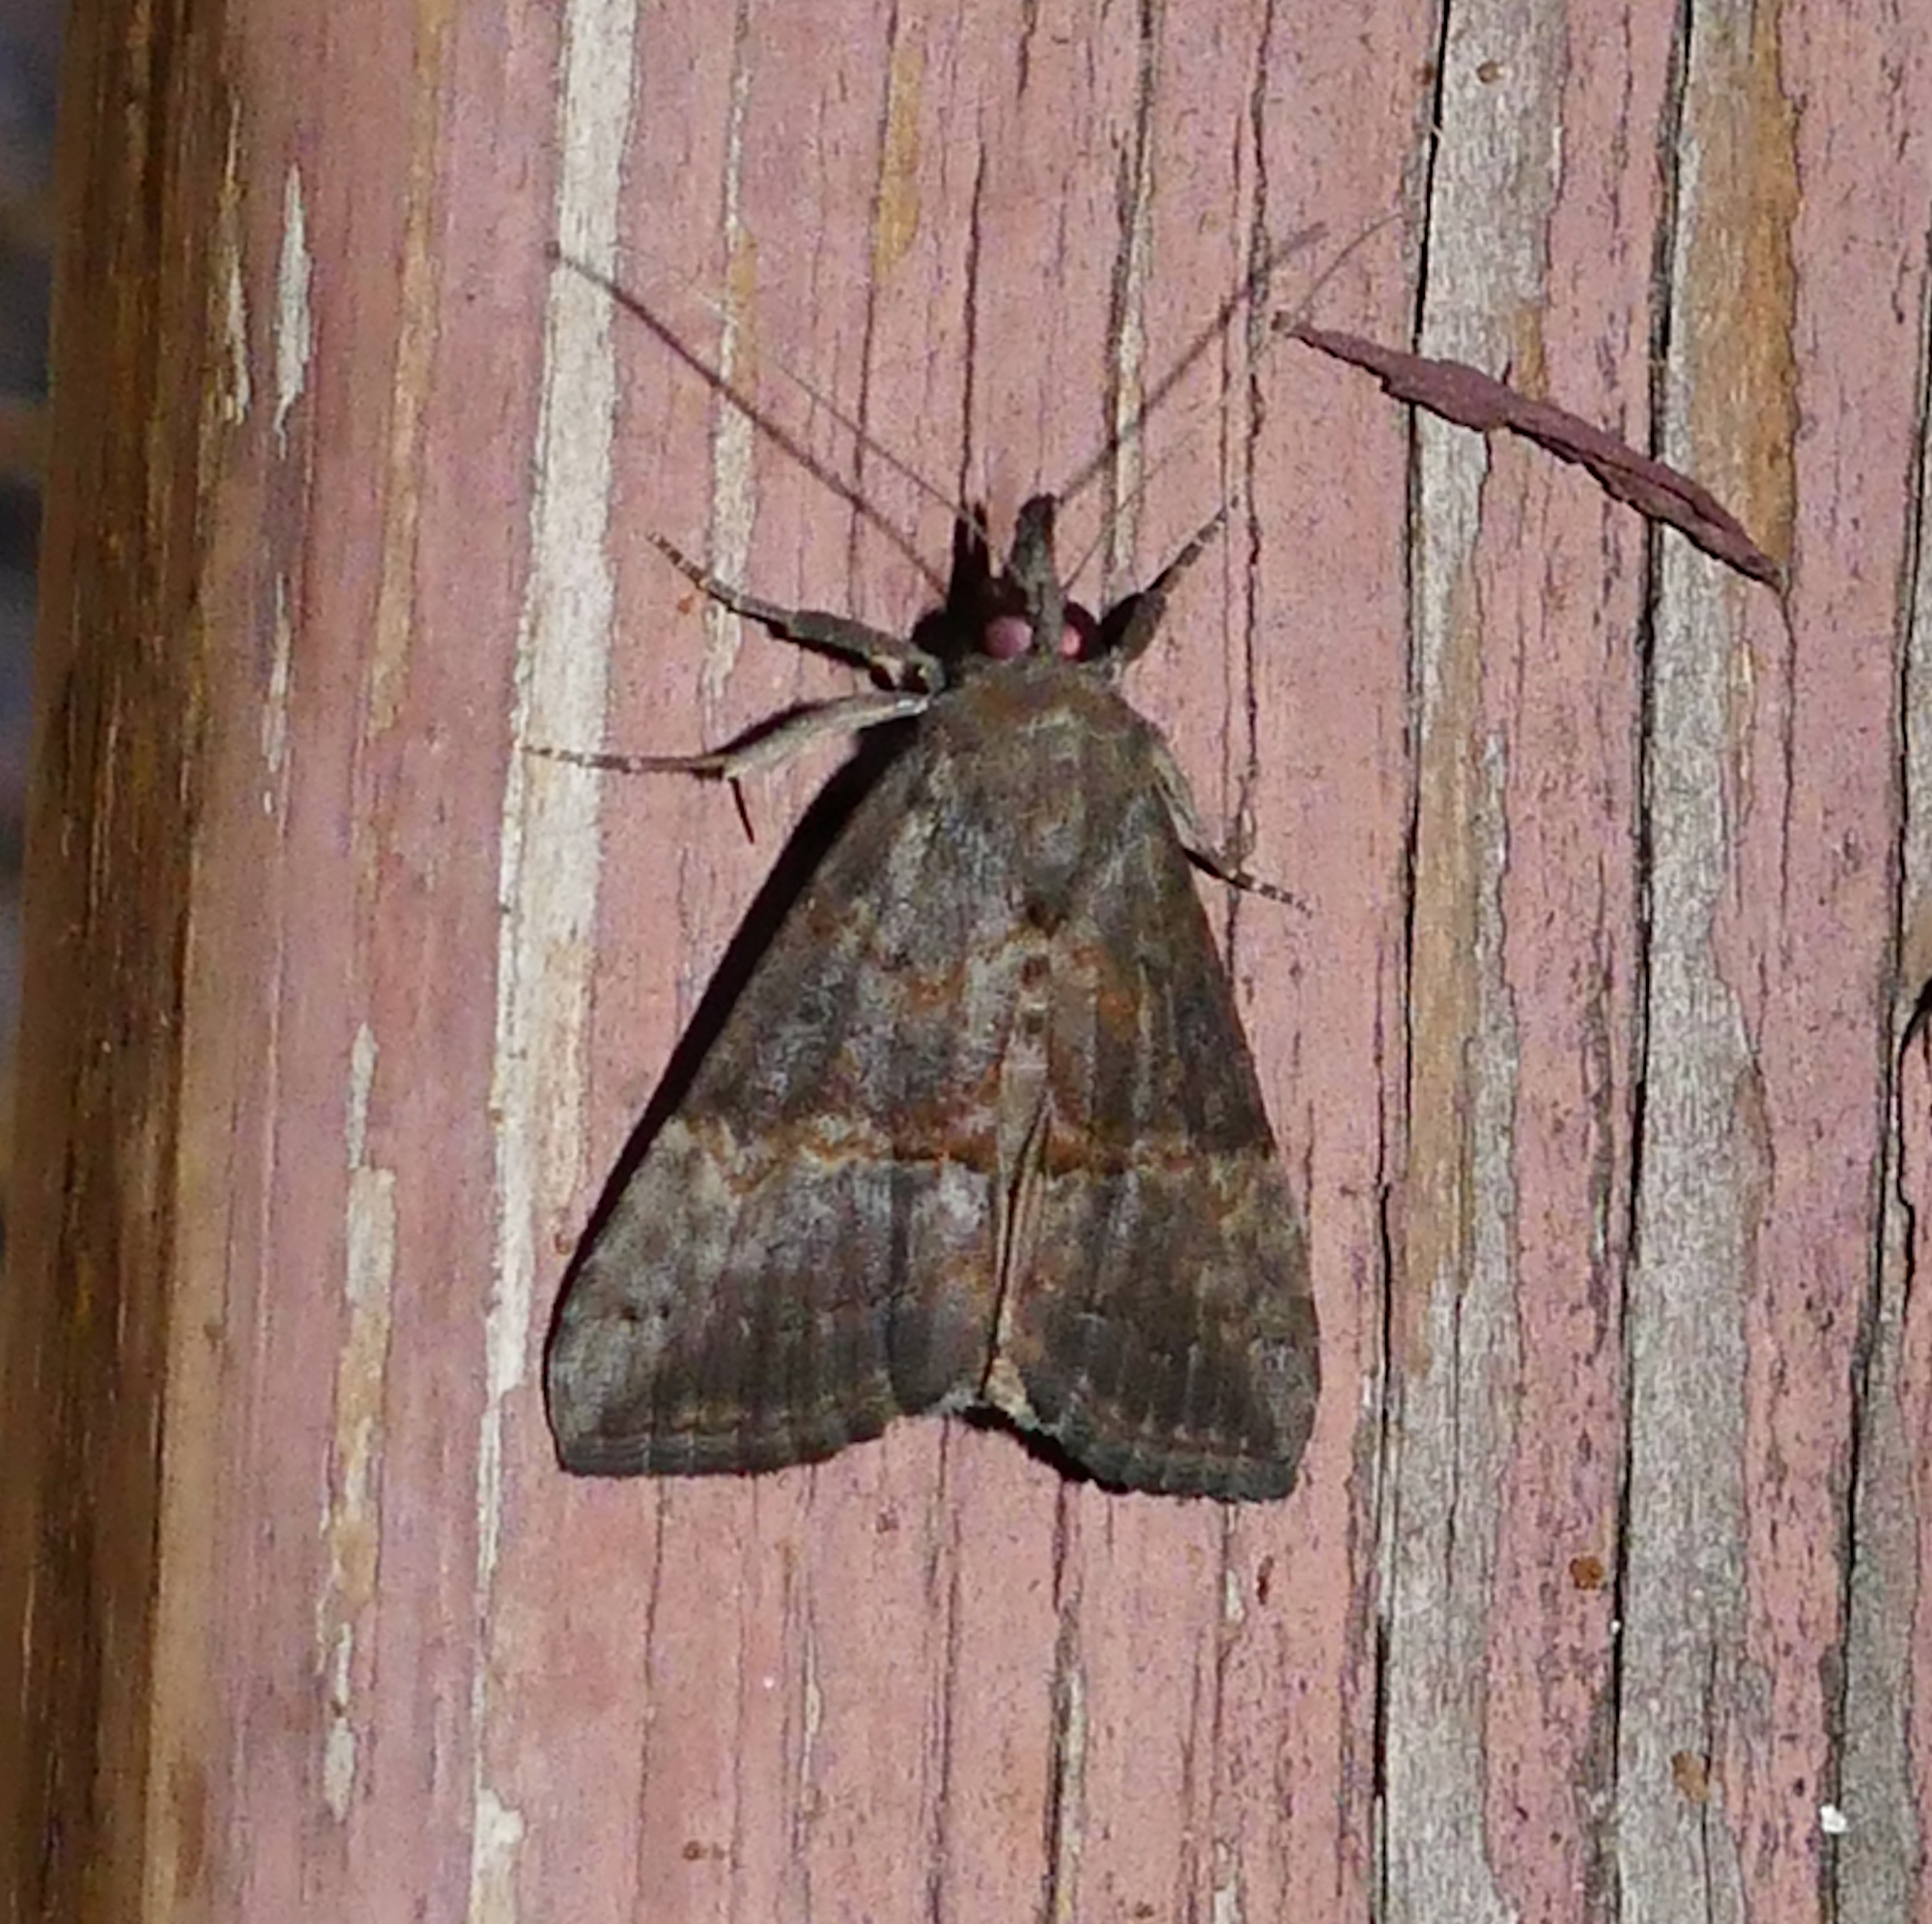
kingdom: Animalia
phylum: Arthropoda
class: Insecta
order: Lepidoptera
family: Erebidae
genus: Hypena
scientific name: Hypena scabra
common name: Green cloverworm
